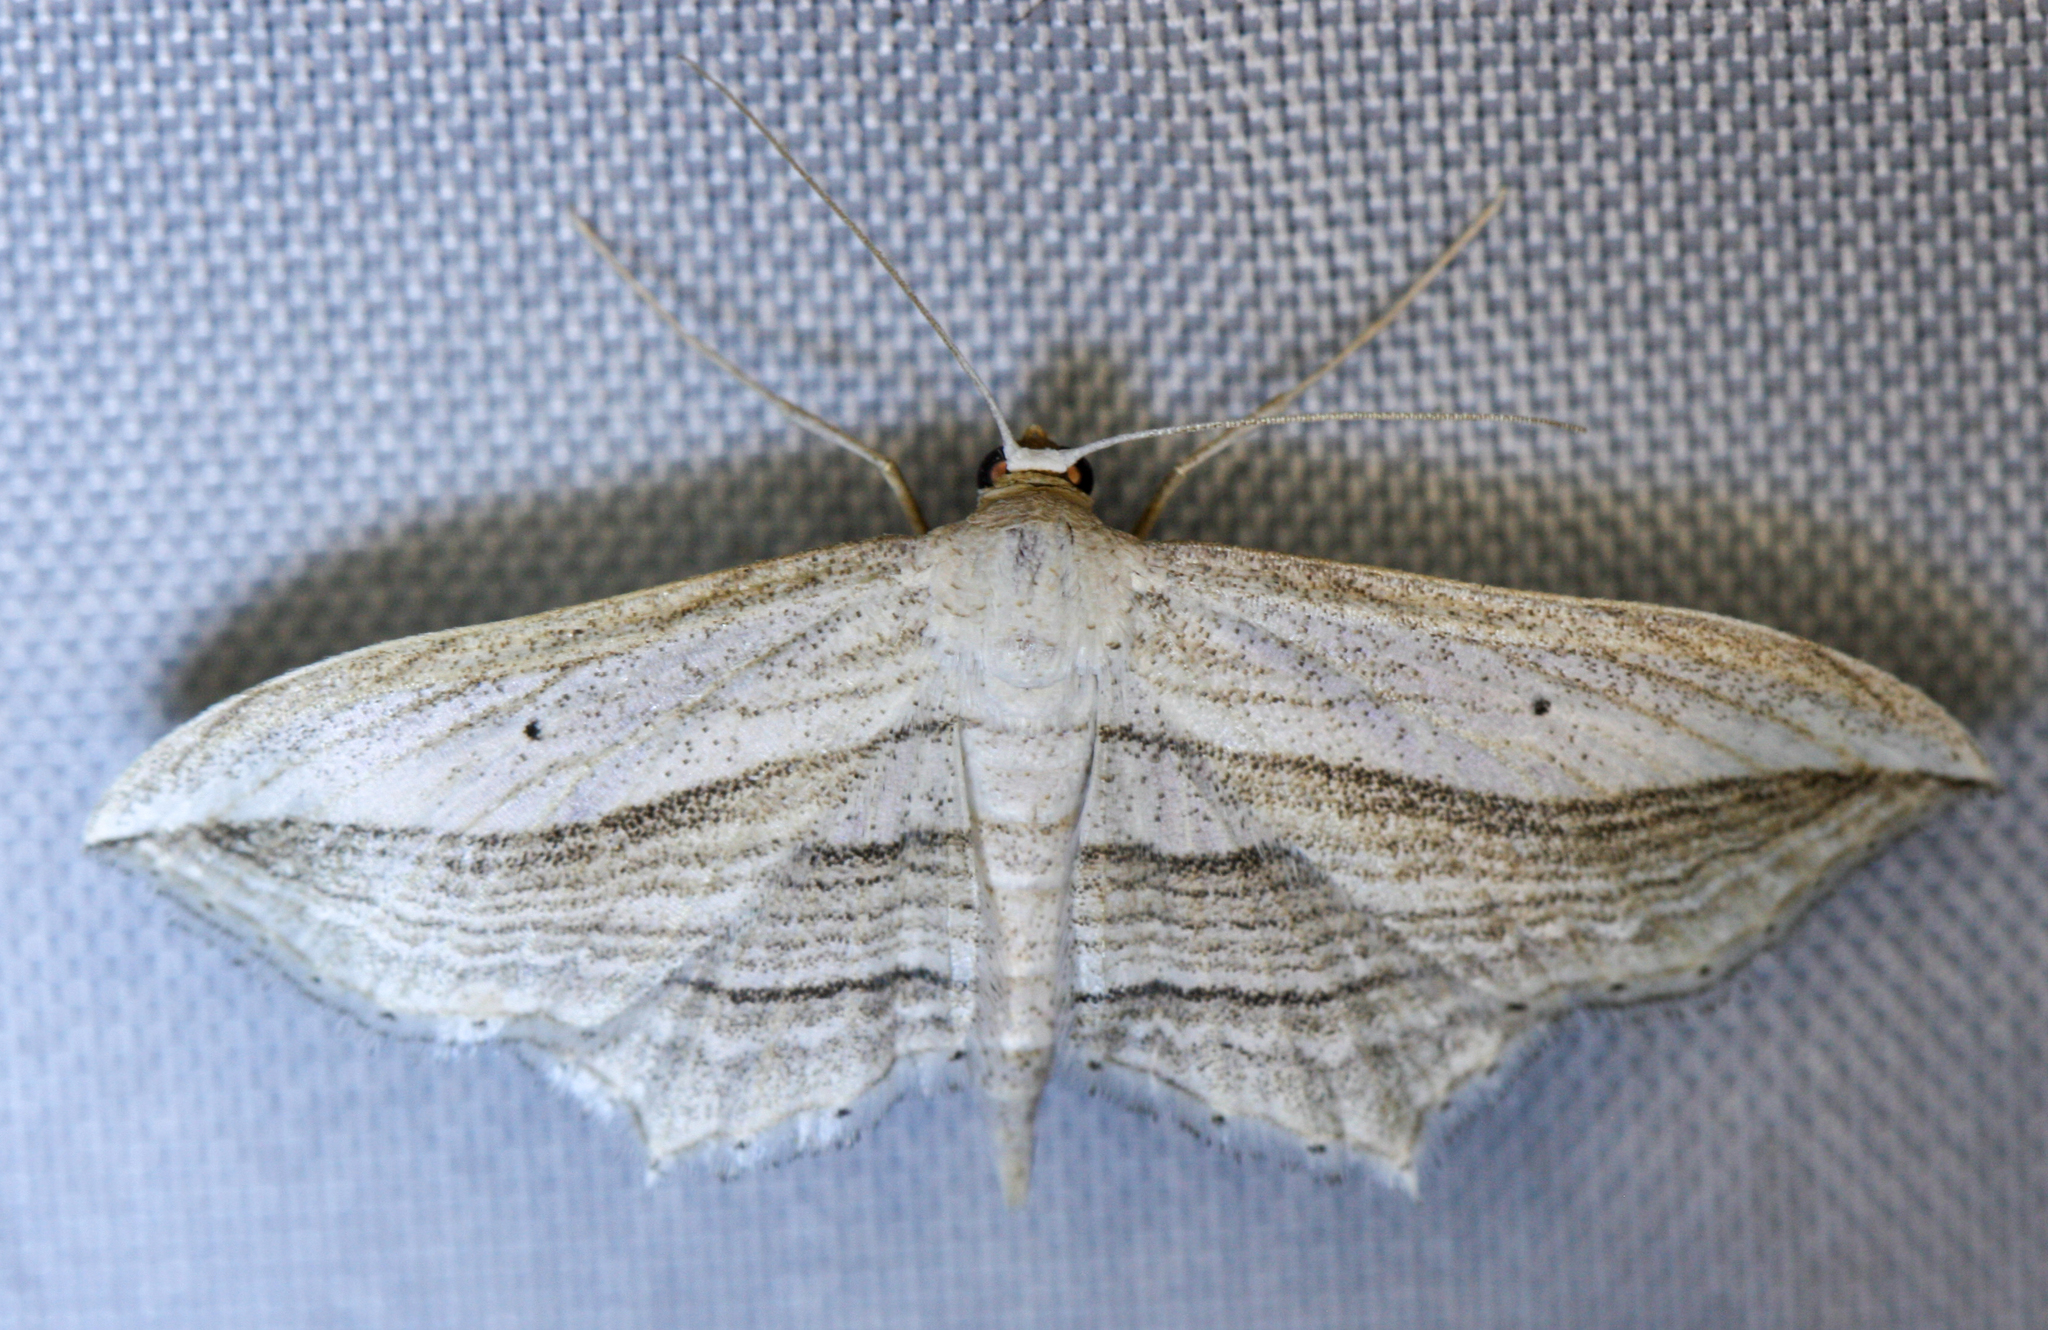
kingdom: Animalia
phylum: Arthropoda
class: Insecta
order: Lepidoptera
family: Geometridae
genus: Arcobara
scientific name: Arcobara multilineata
